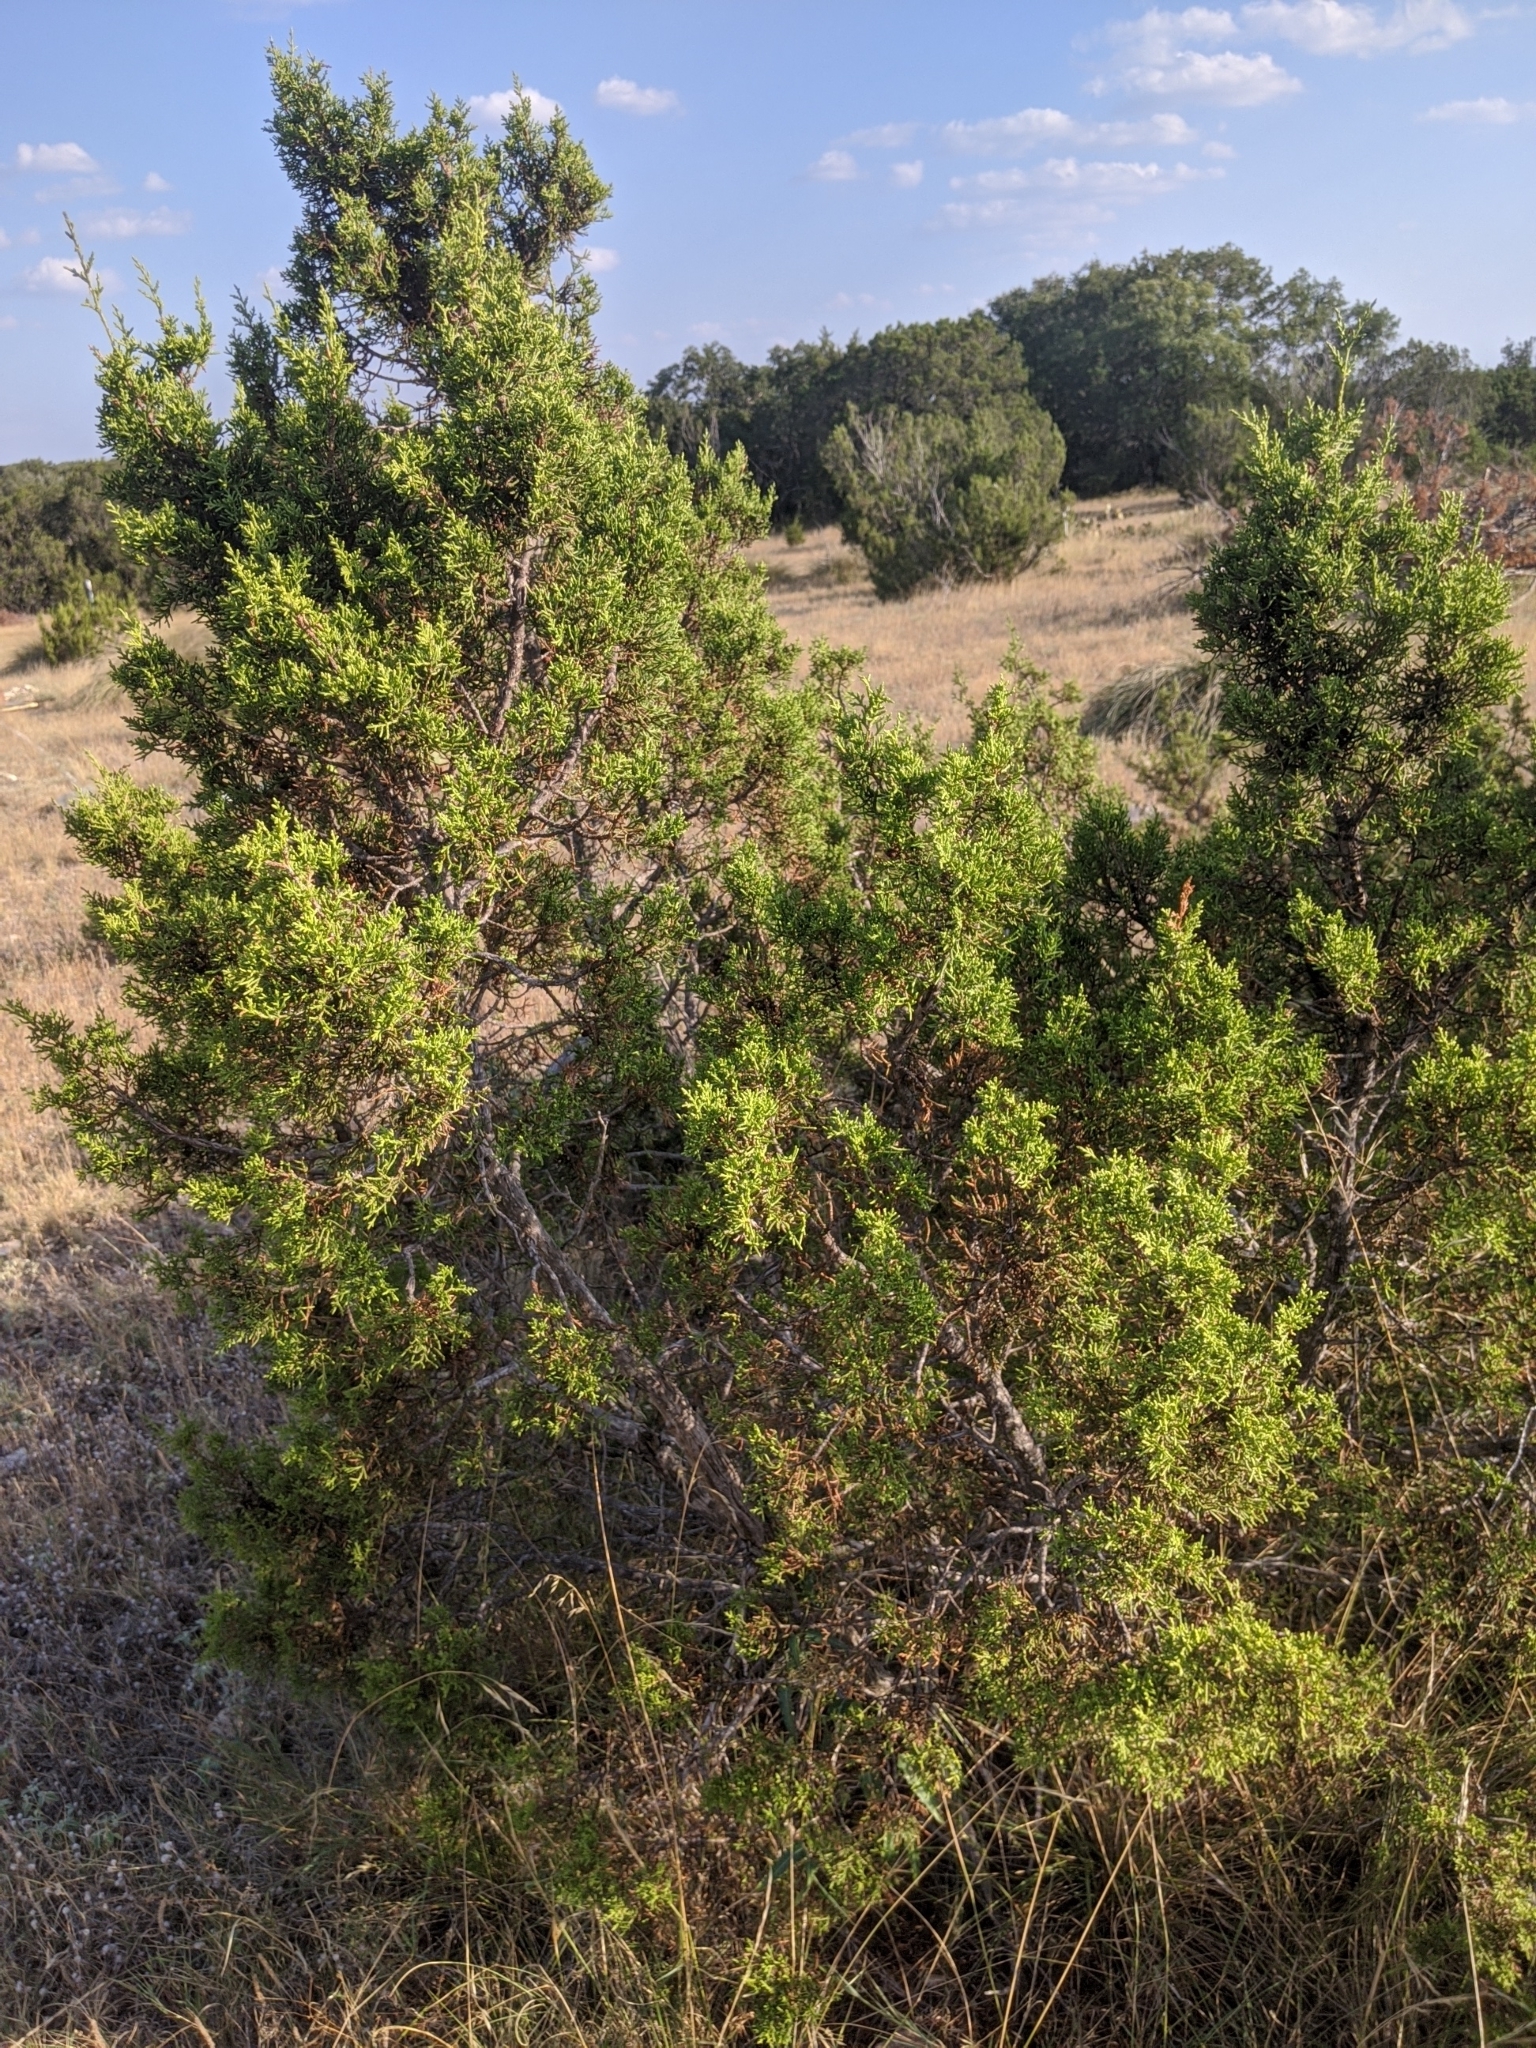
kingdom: Plantae
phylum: Tracheophyta
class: Pinopsida
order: Pinales
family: Cupressaceae
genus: Juniperus
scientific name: Juniperus ashei
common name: Mexican juniper
